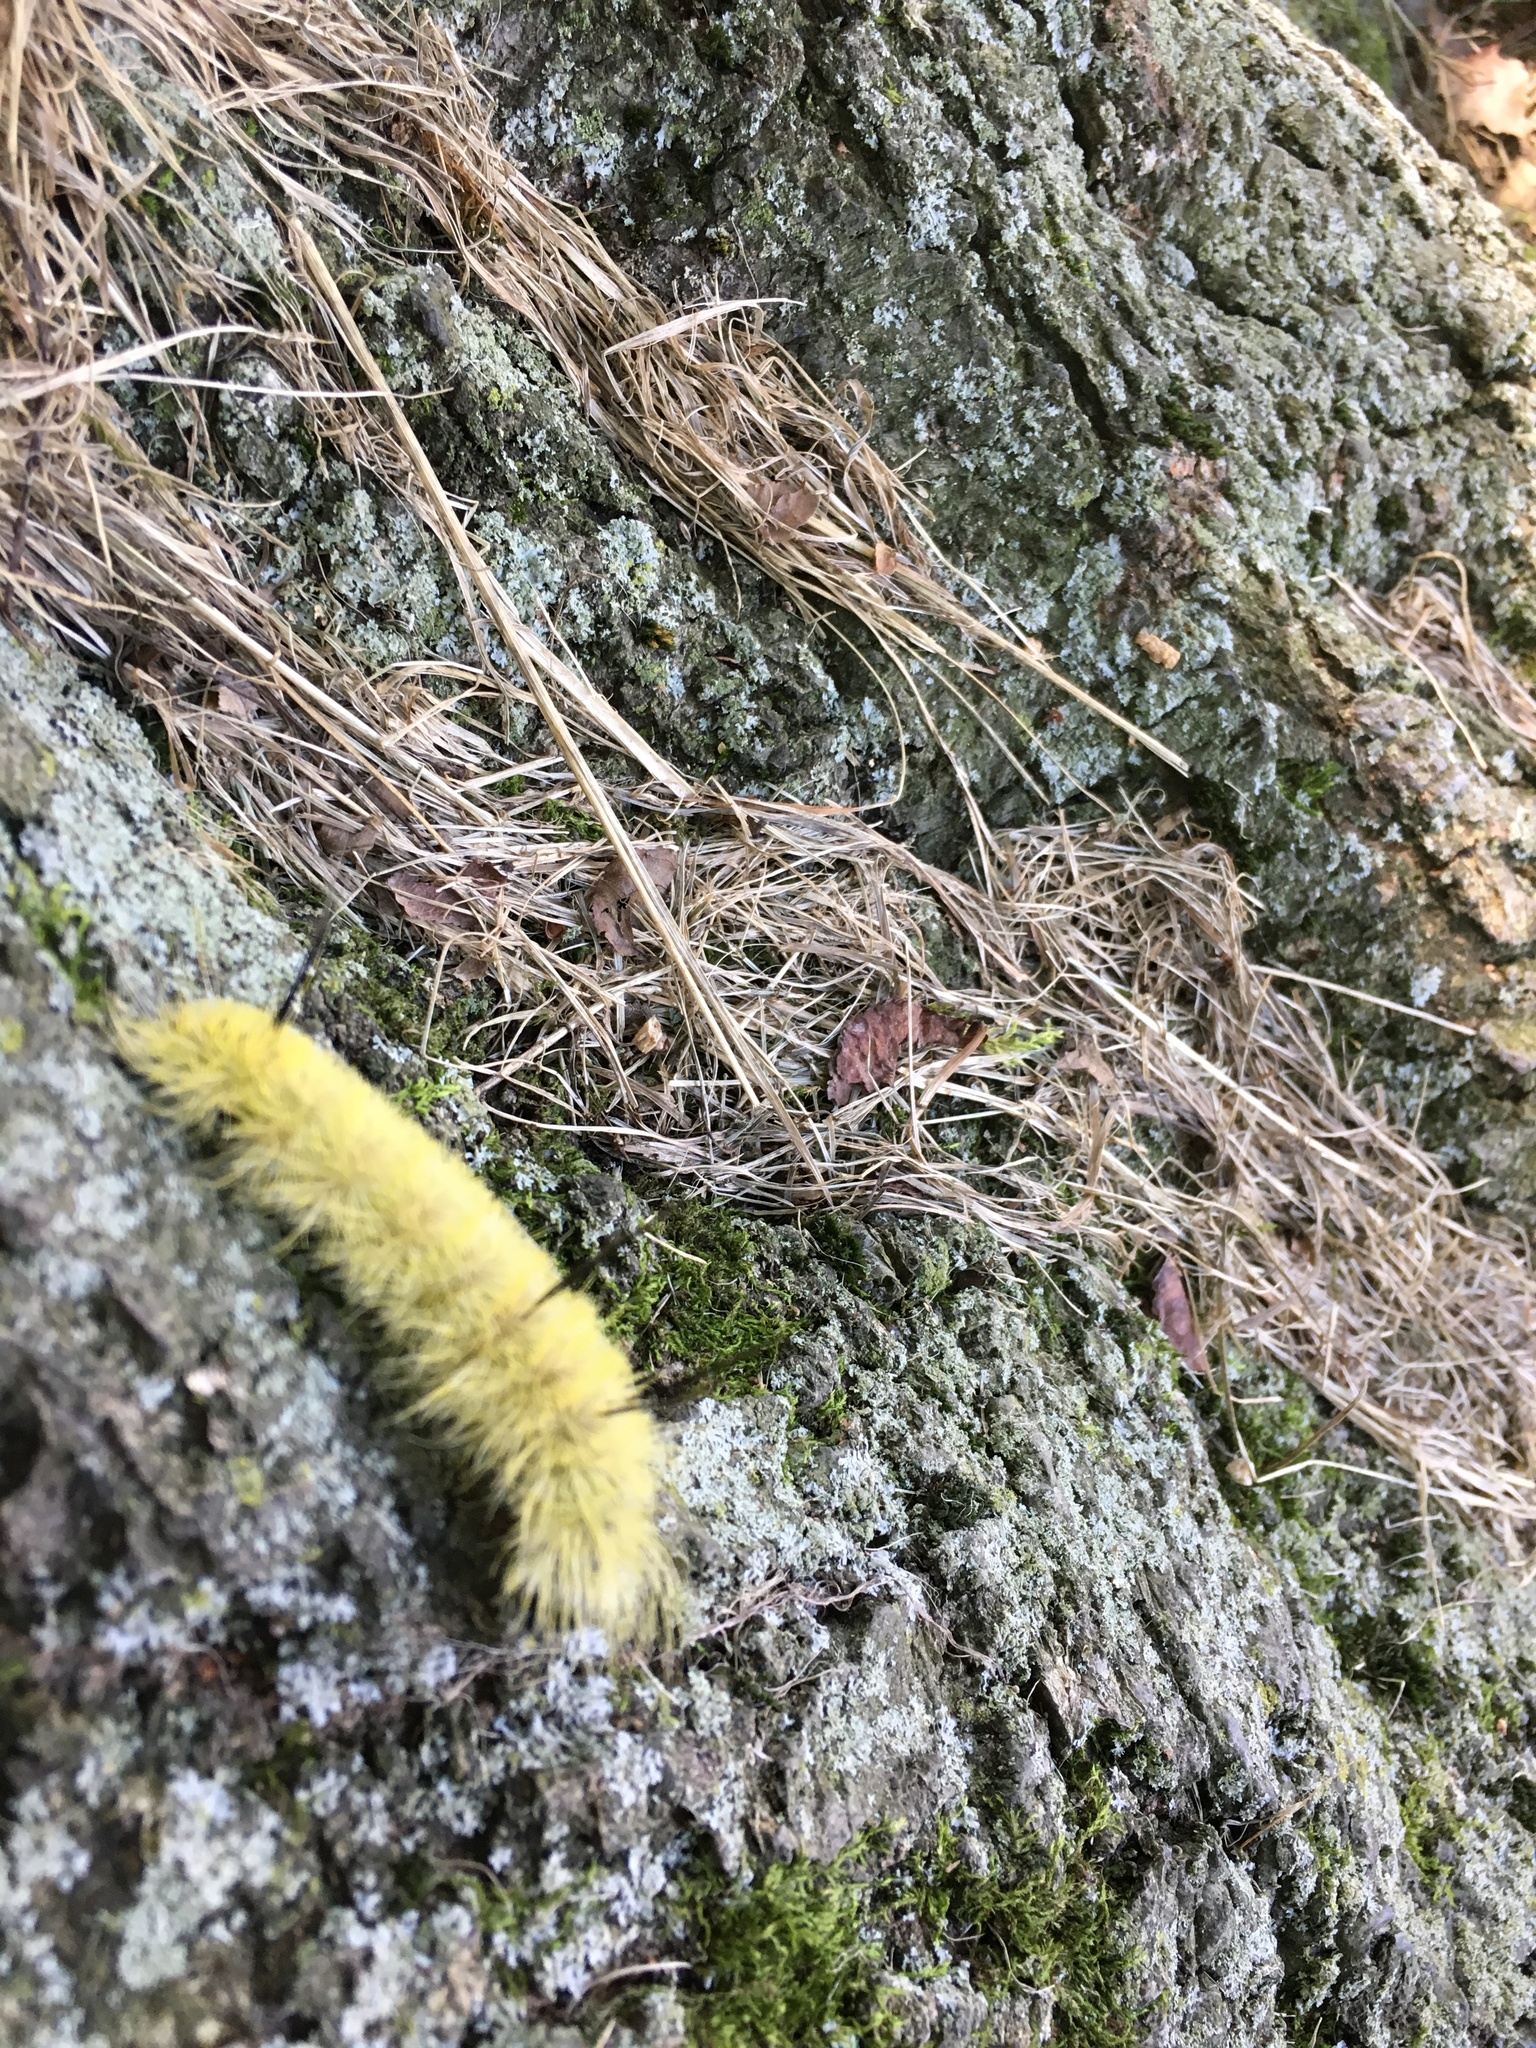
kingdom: Animalia
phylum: Arthropoda
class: Insecta
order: Lepidoptera
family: Noctuidae
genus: Acronicta
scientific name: Acronicta americana
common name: American dagger
